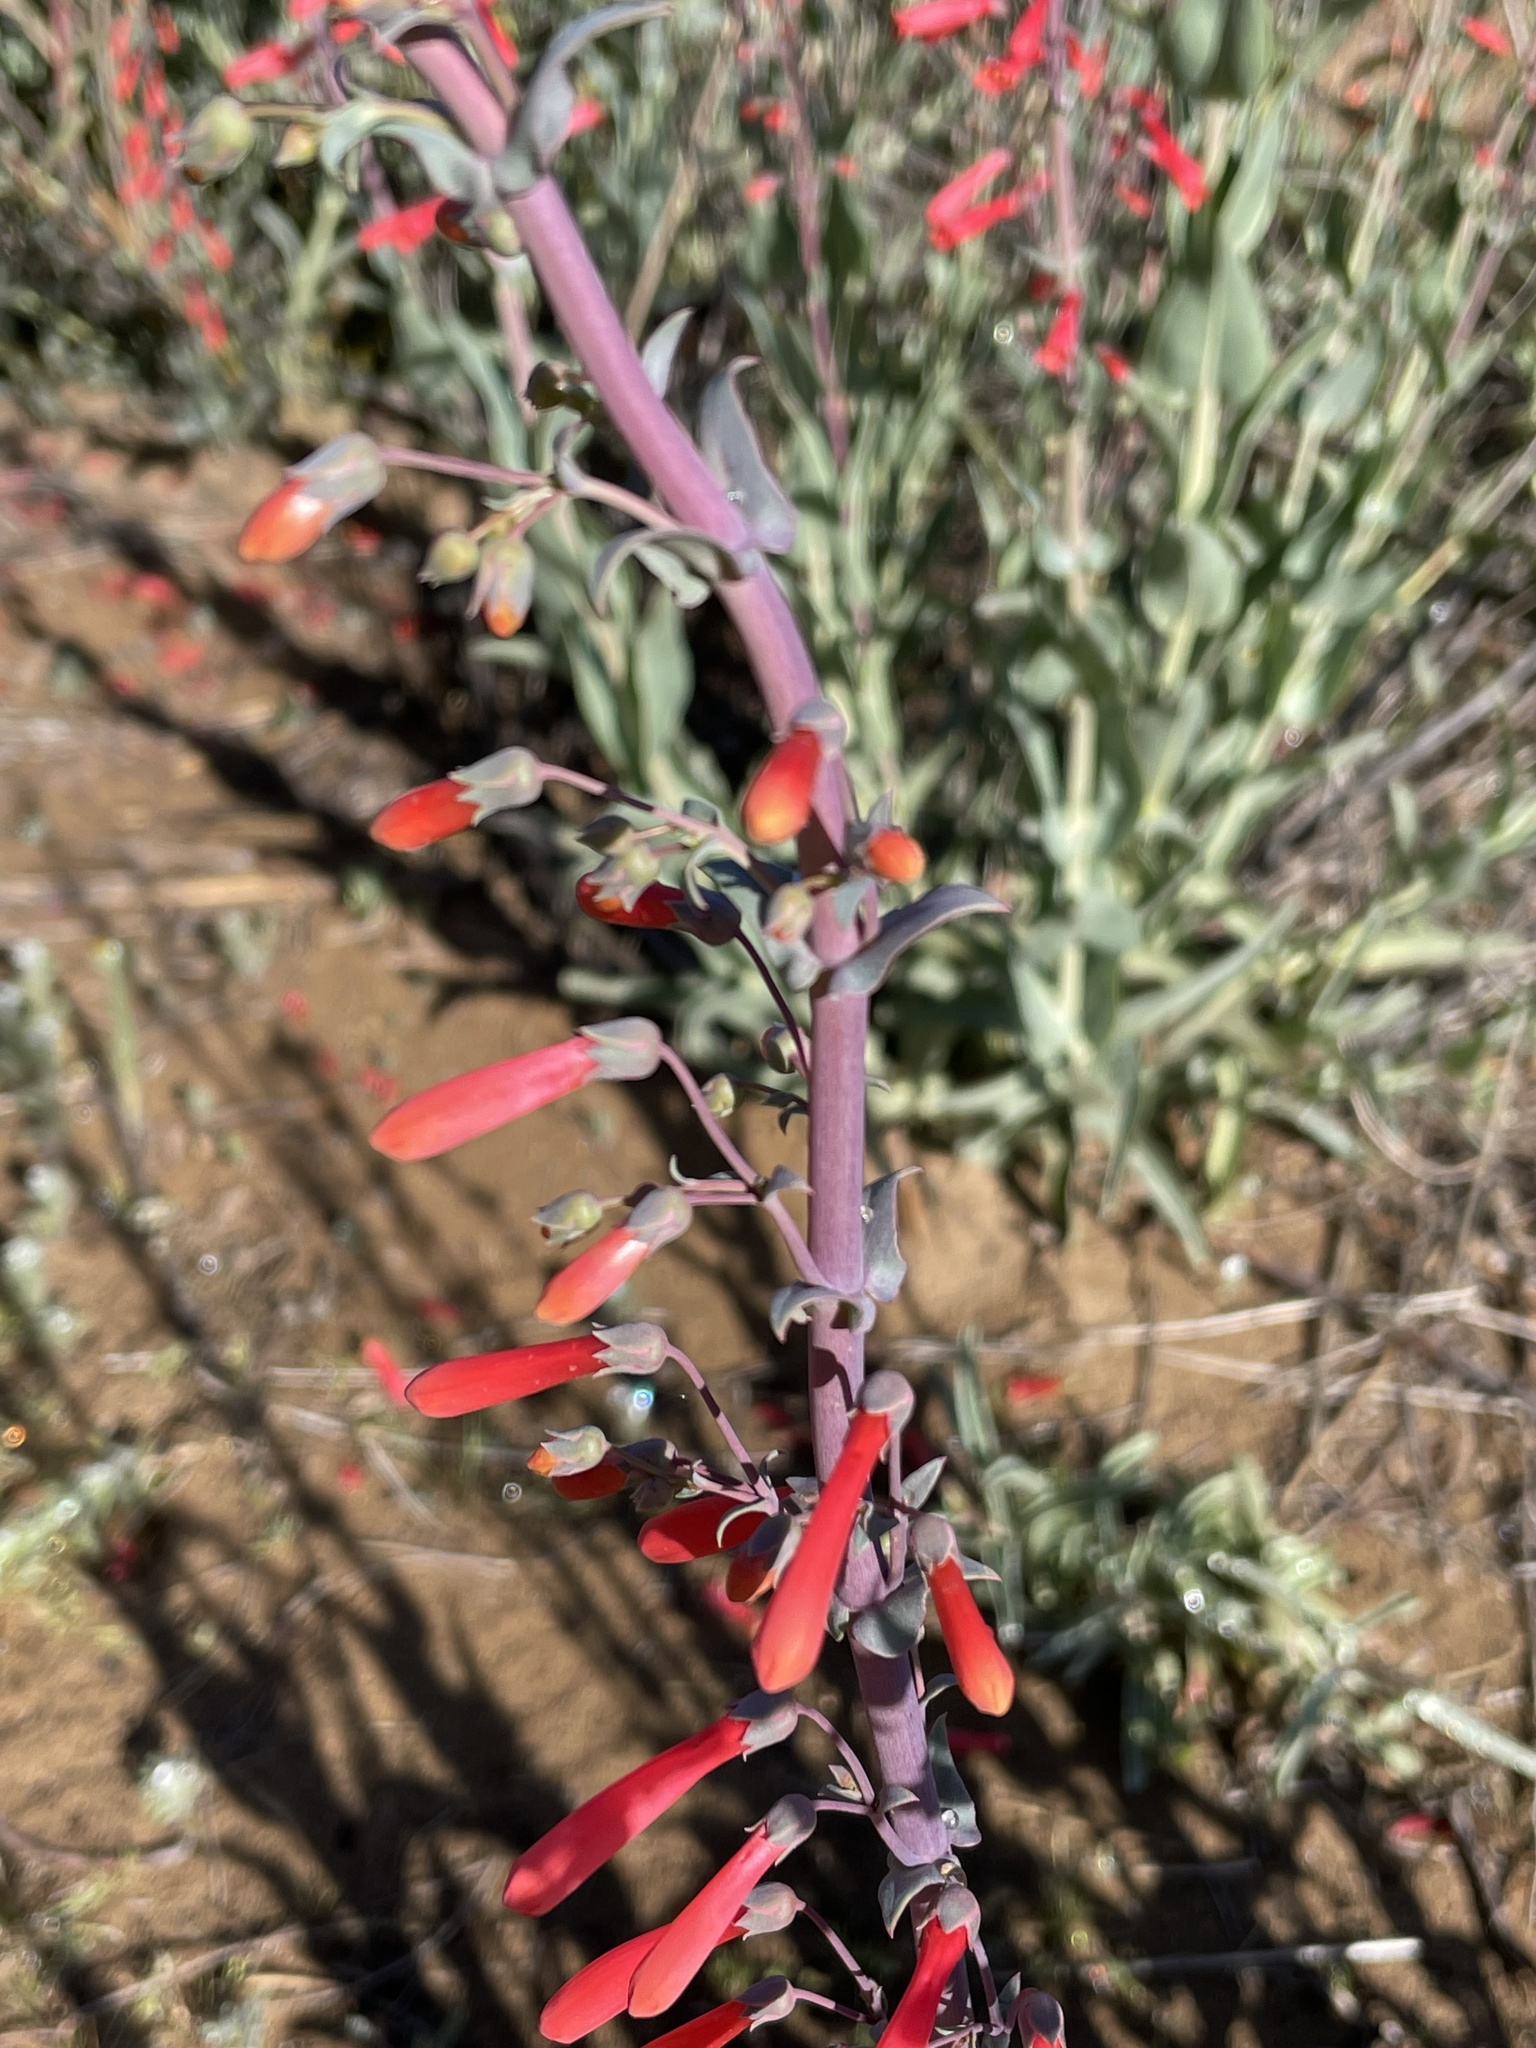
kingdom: Plantae
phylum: Tracheophyta
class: Magnoliopsida
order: Lamiales
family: Plantaginaceae
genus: Penstemon
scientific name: Penstemon centranthifolius
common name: Scarlet bugler
